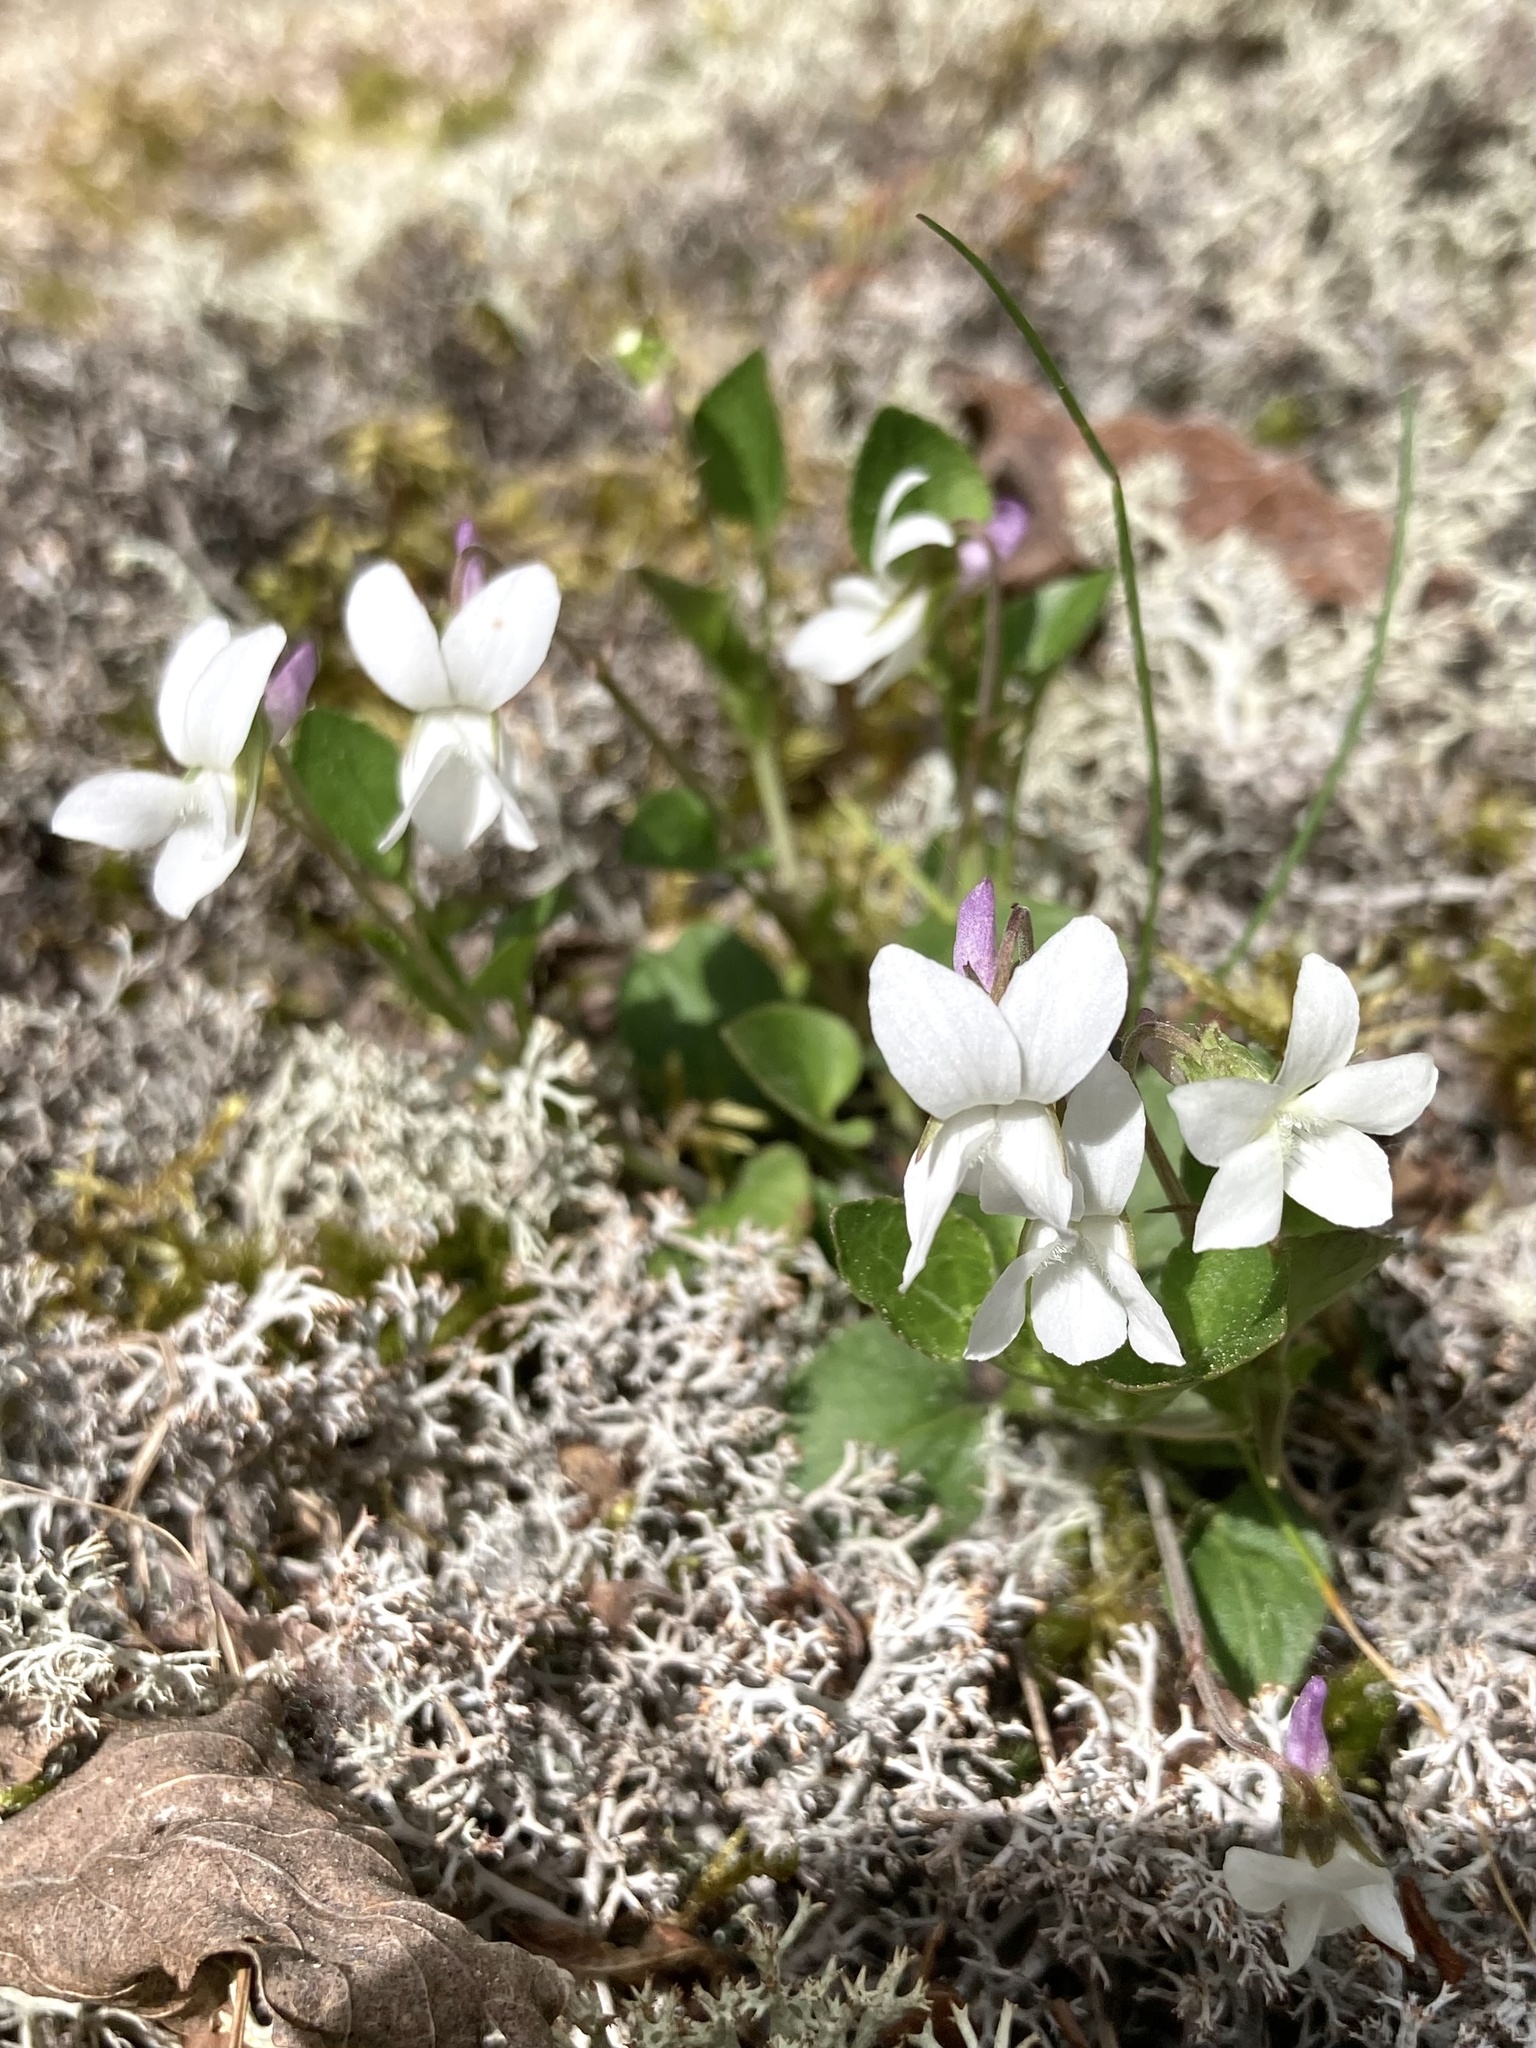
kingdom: Plantae
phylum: Tracheophyta
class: Magnoliopsida
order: Malpighiales
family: Violaceae
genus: Viola
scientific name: Viola adunca
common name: Sand violet
